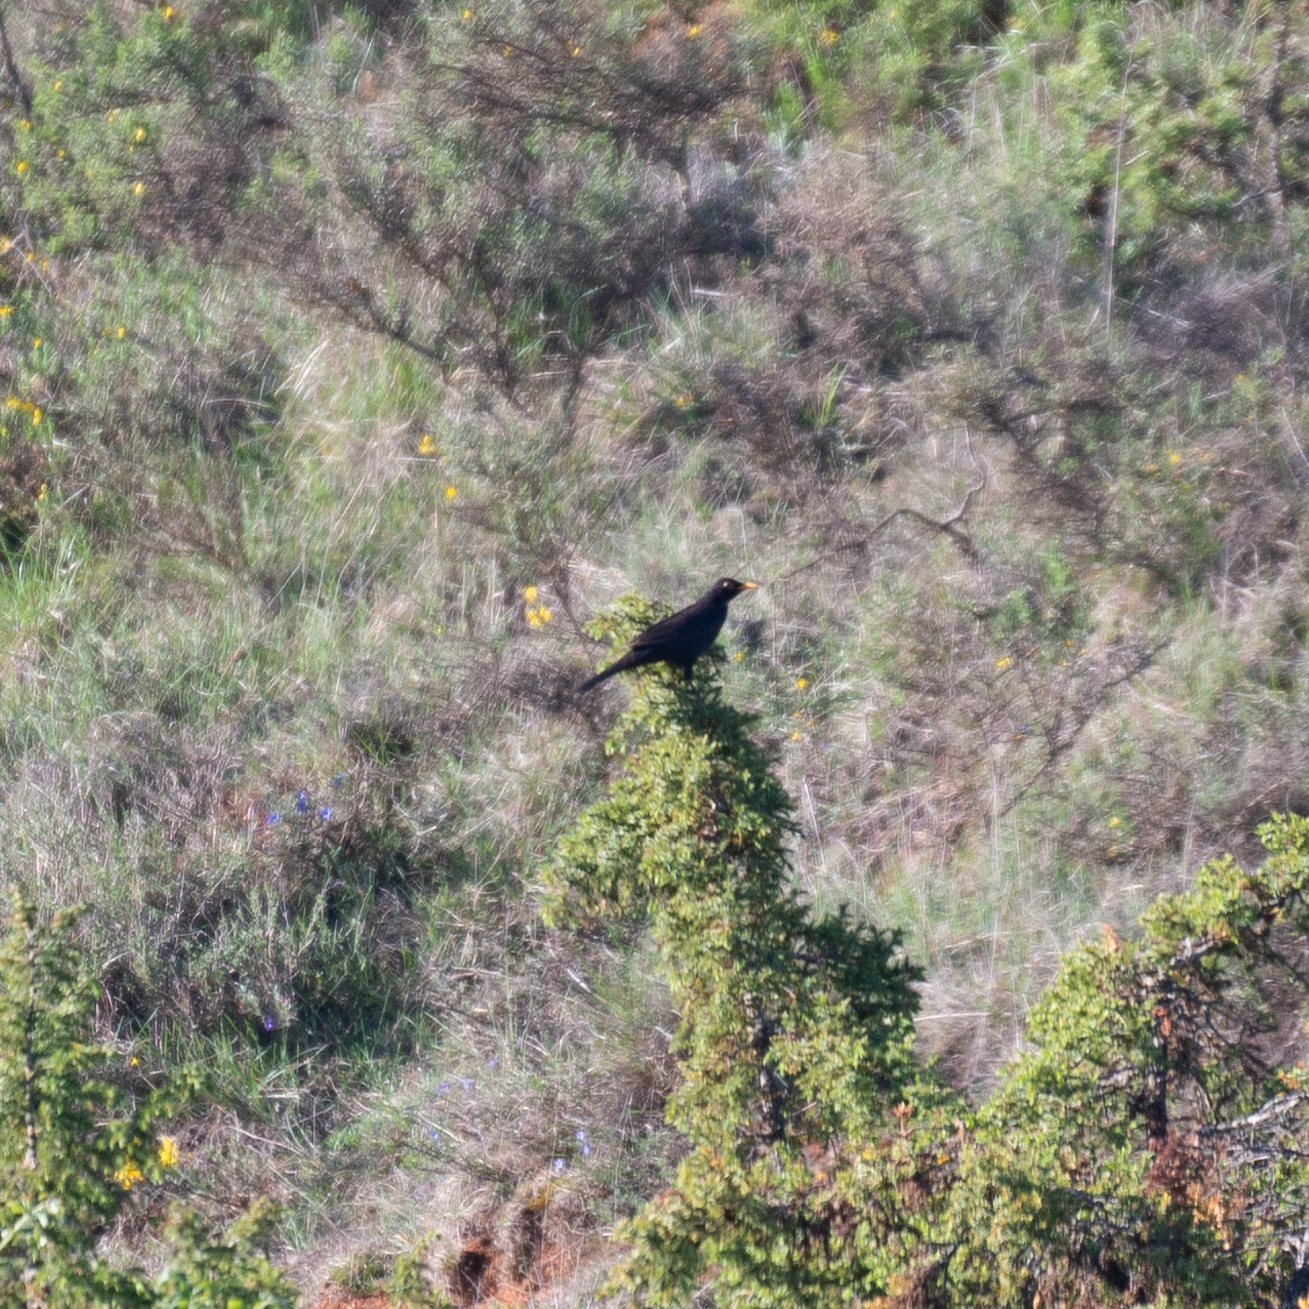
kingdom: Animalia
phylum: Chordata
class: Aves
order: Passeriformes
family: Turdidae
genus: Turdus
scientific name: Turdus merula
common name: Common blackbird
